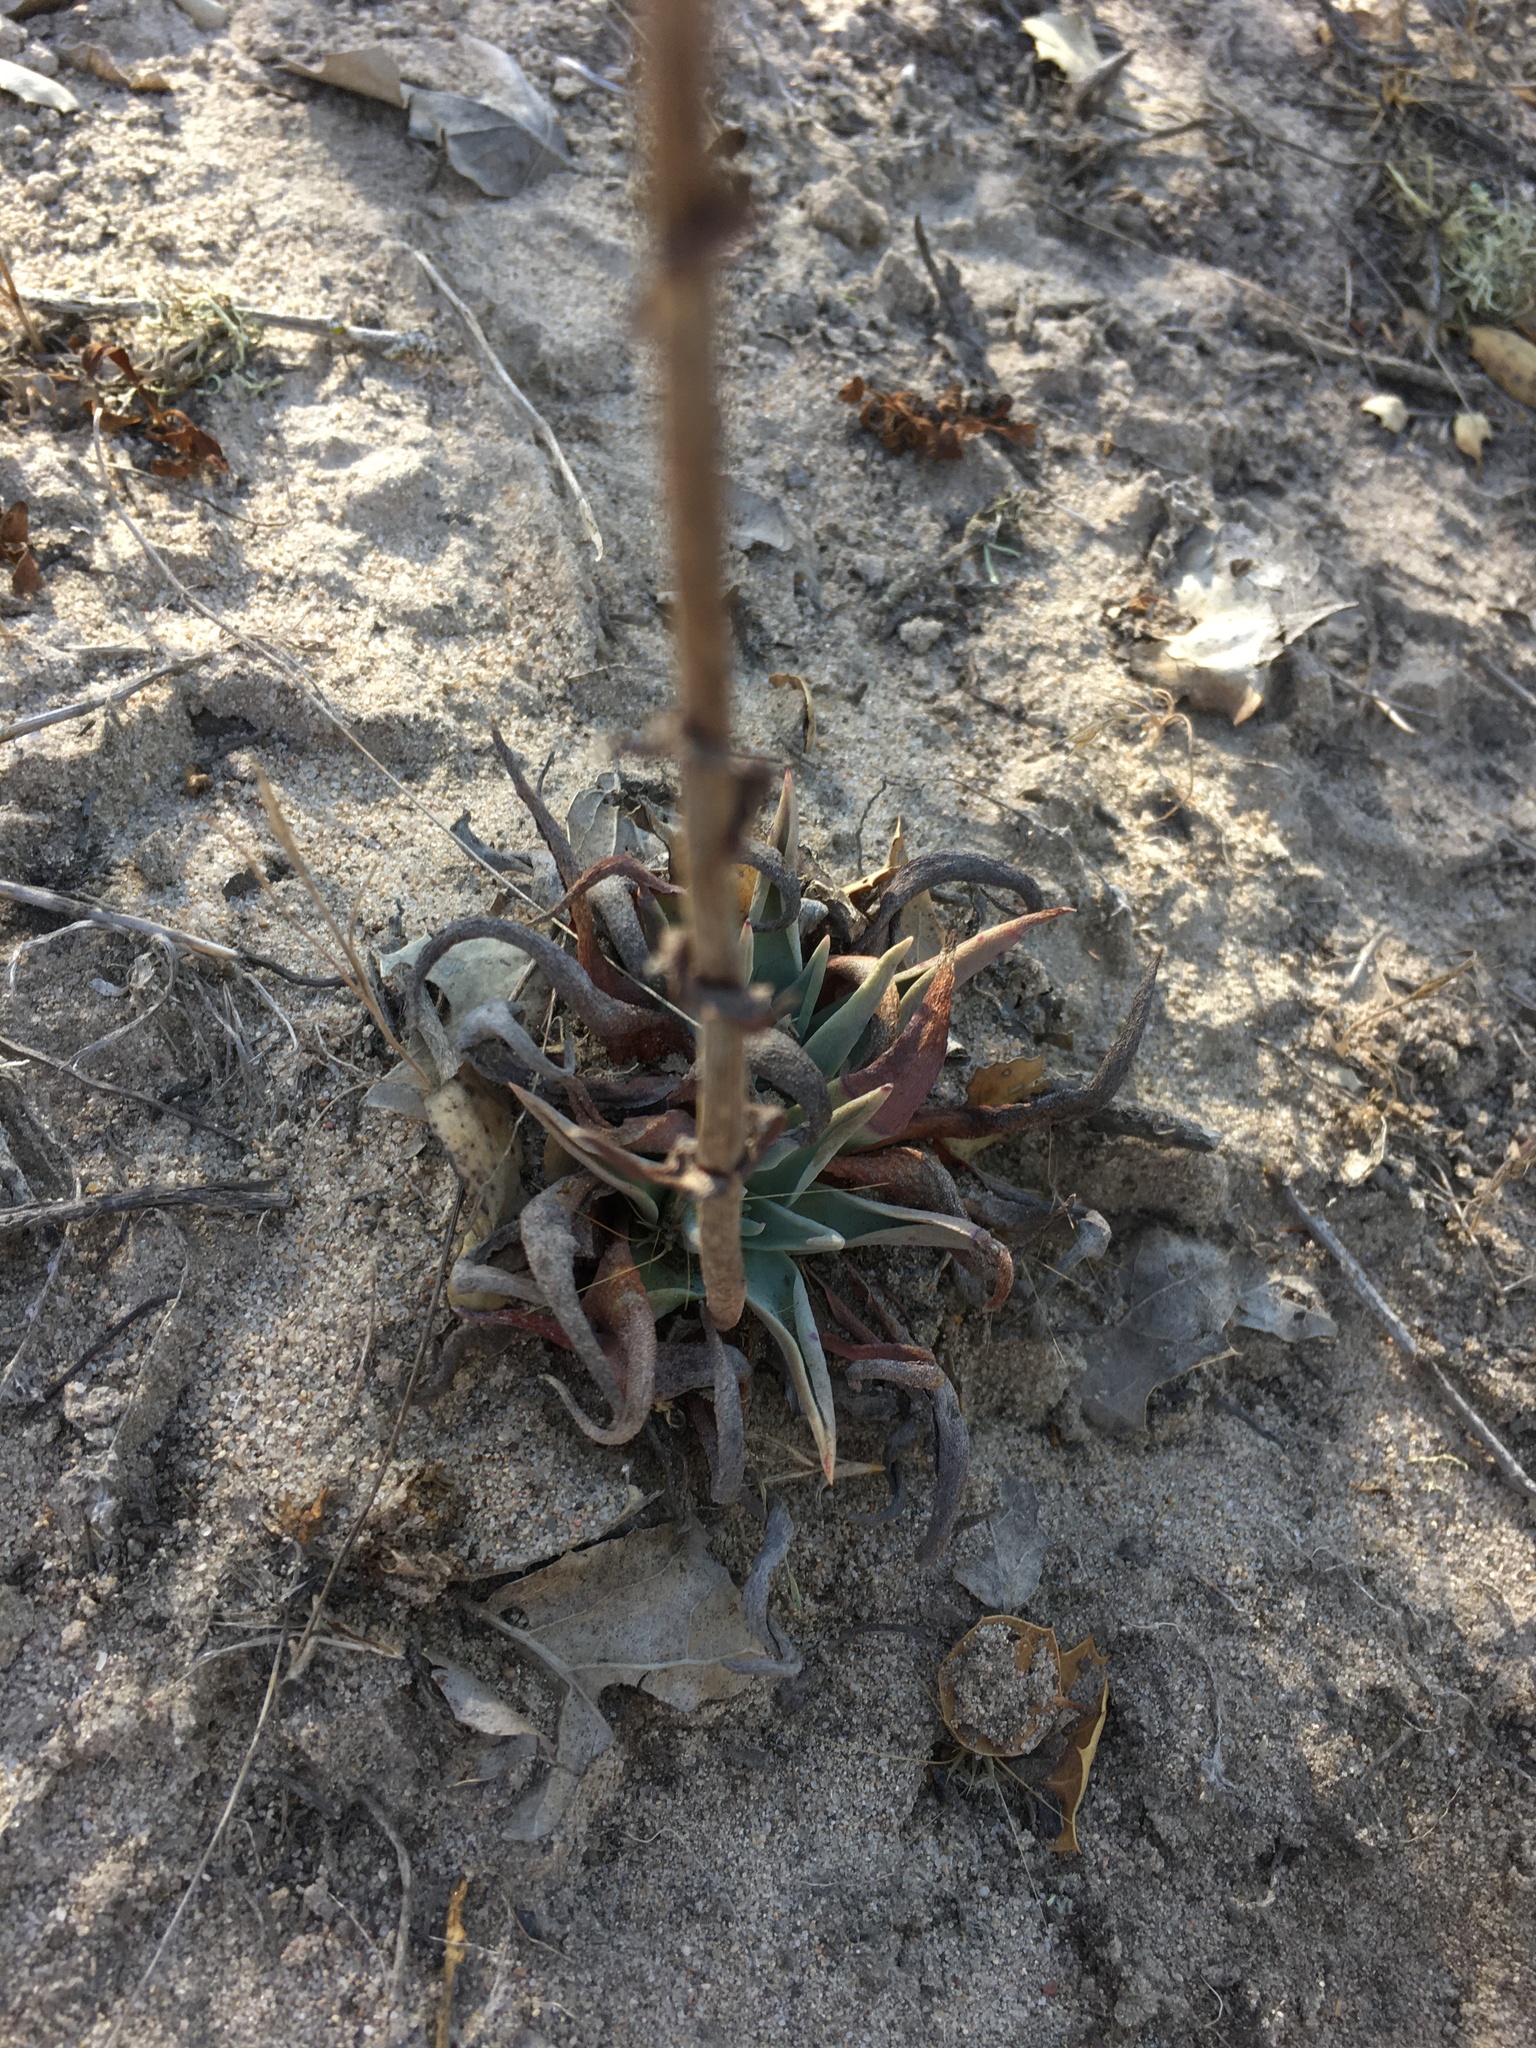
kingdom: Plantae
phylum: Tracheophyta
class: Magnoliopsida
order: Saxifragales
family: Crassulaceae
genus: Dudleya
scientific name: Dudleya lanceolata
